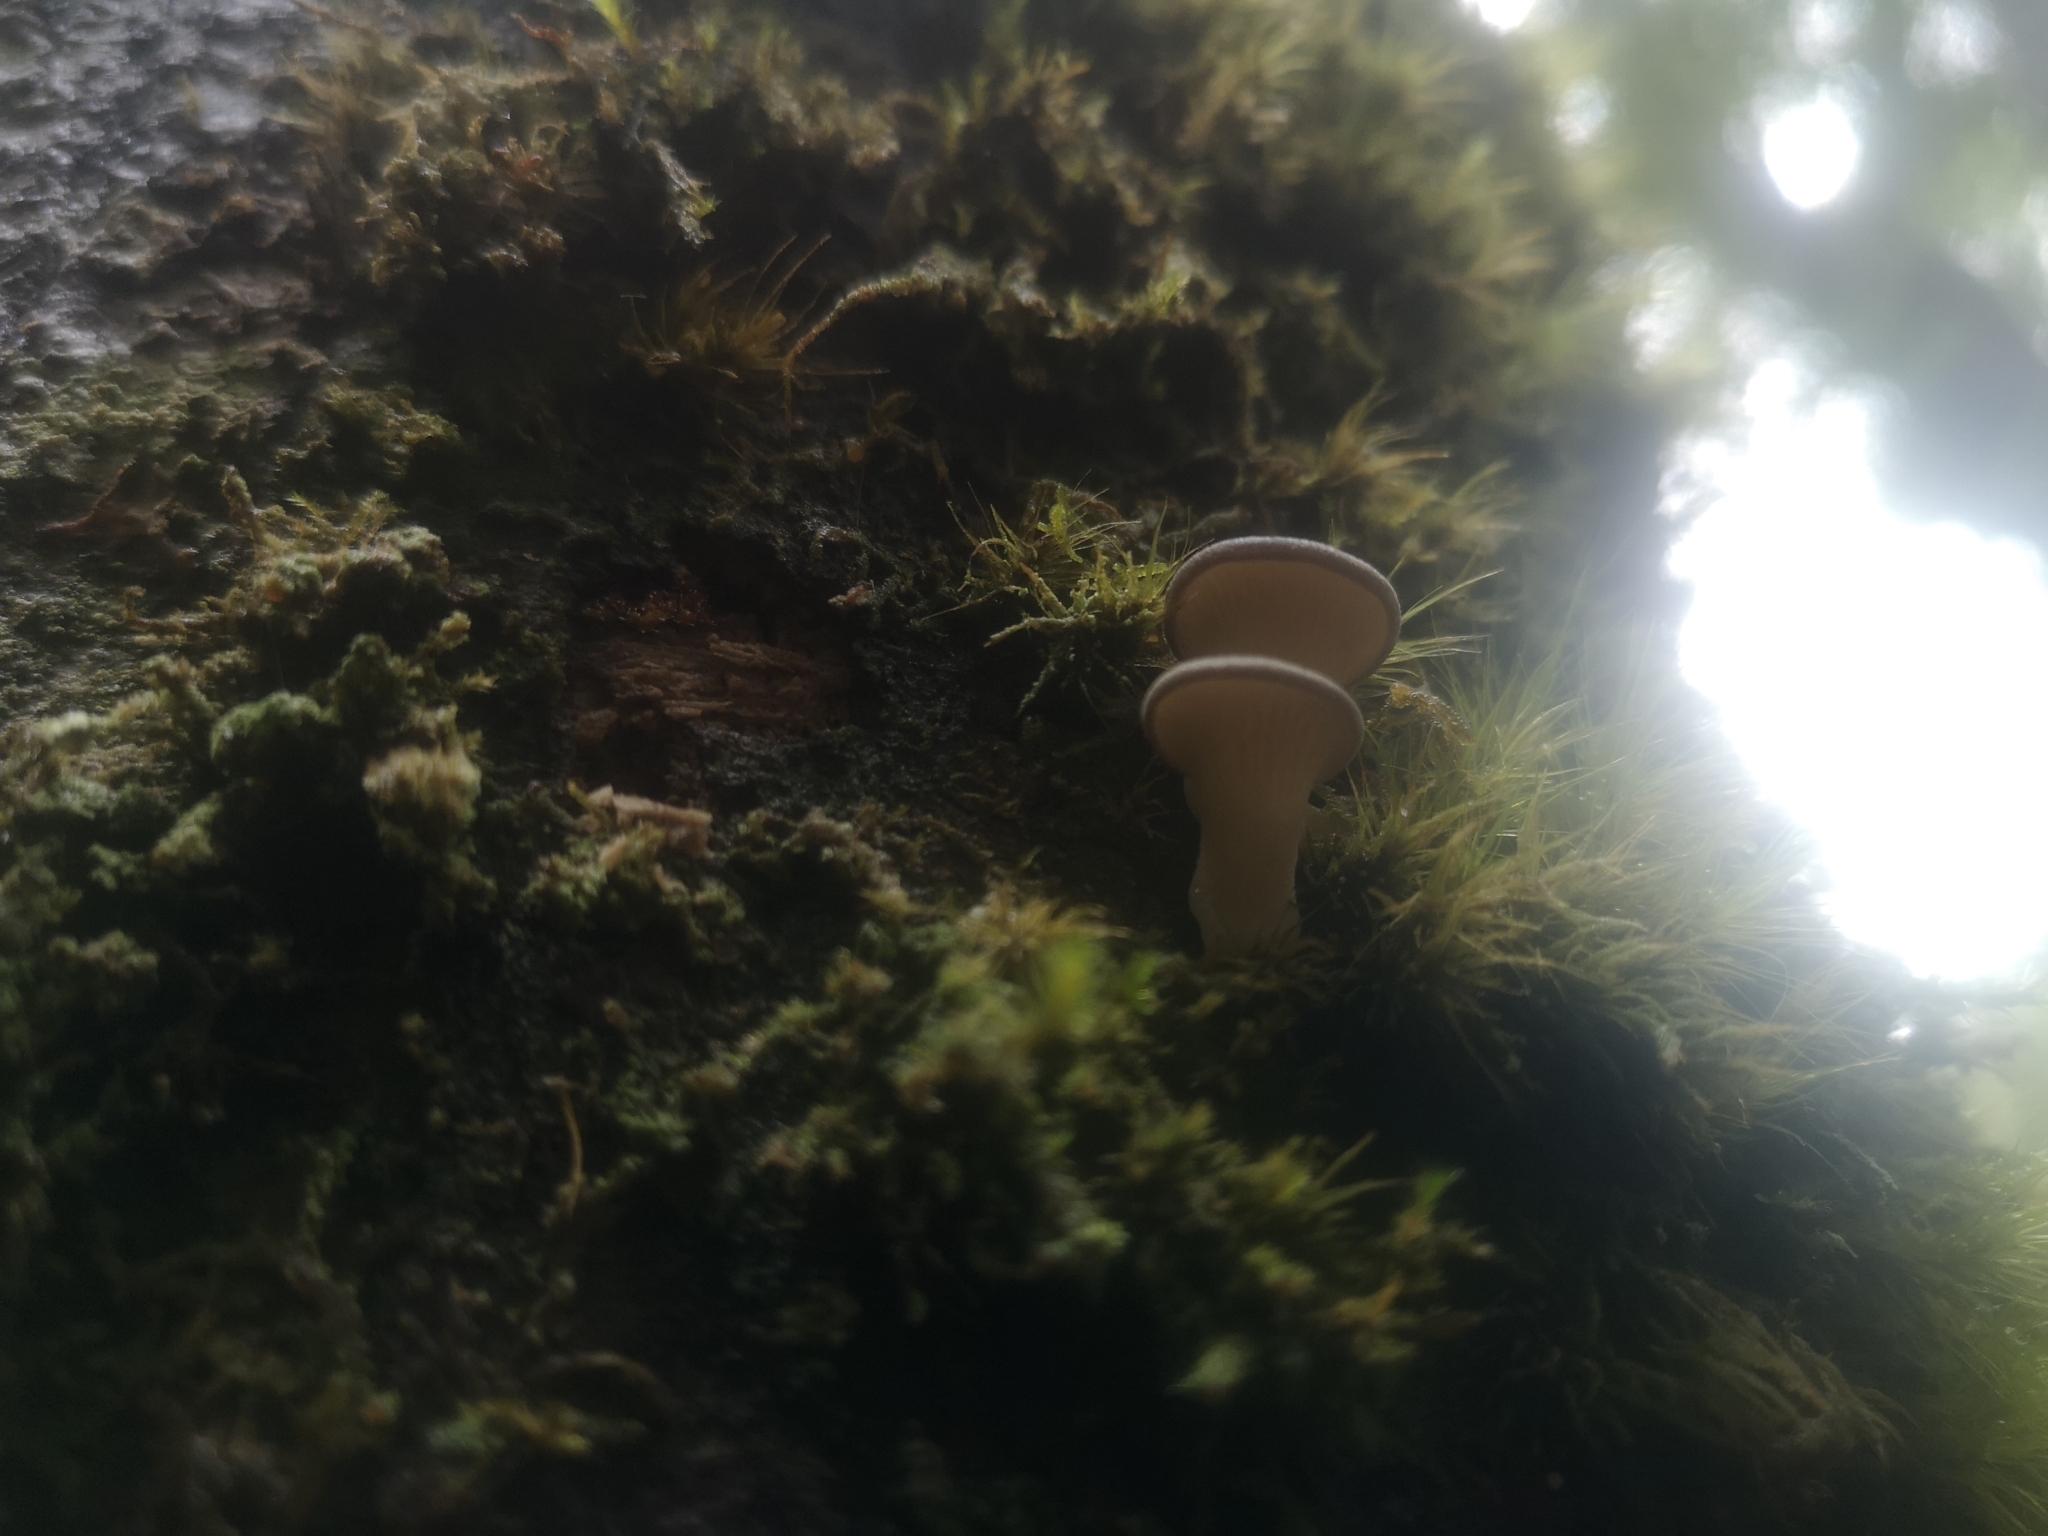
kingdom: Fungi
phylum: Basidiomycota
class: Agaricomycetes
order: Agaricales
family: Pleurotaceae
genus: Pleurotus
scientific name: Pleurotus purpureo-olivaceus
